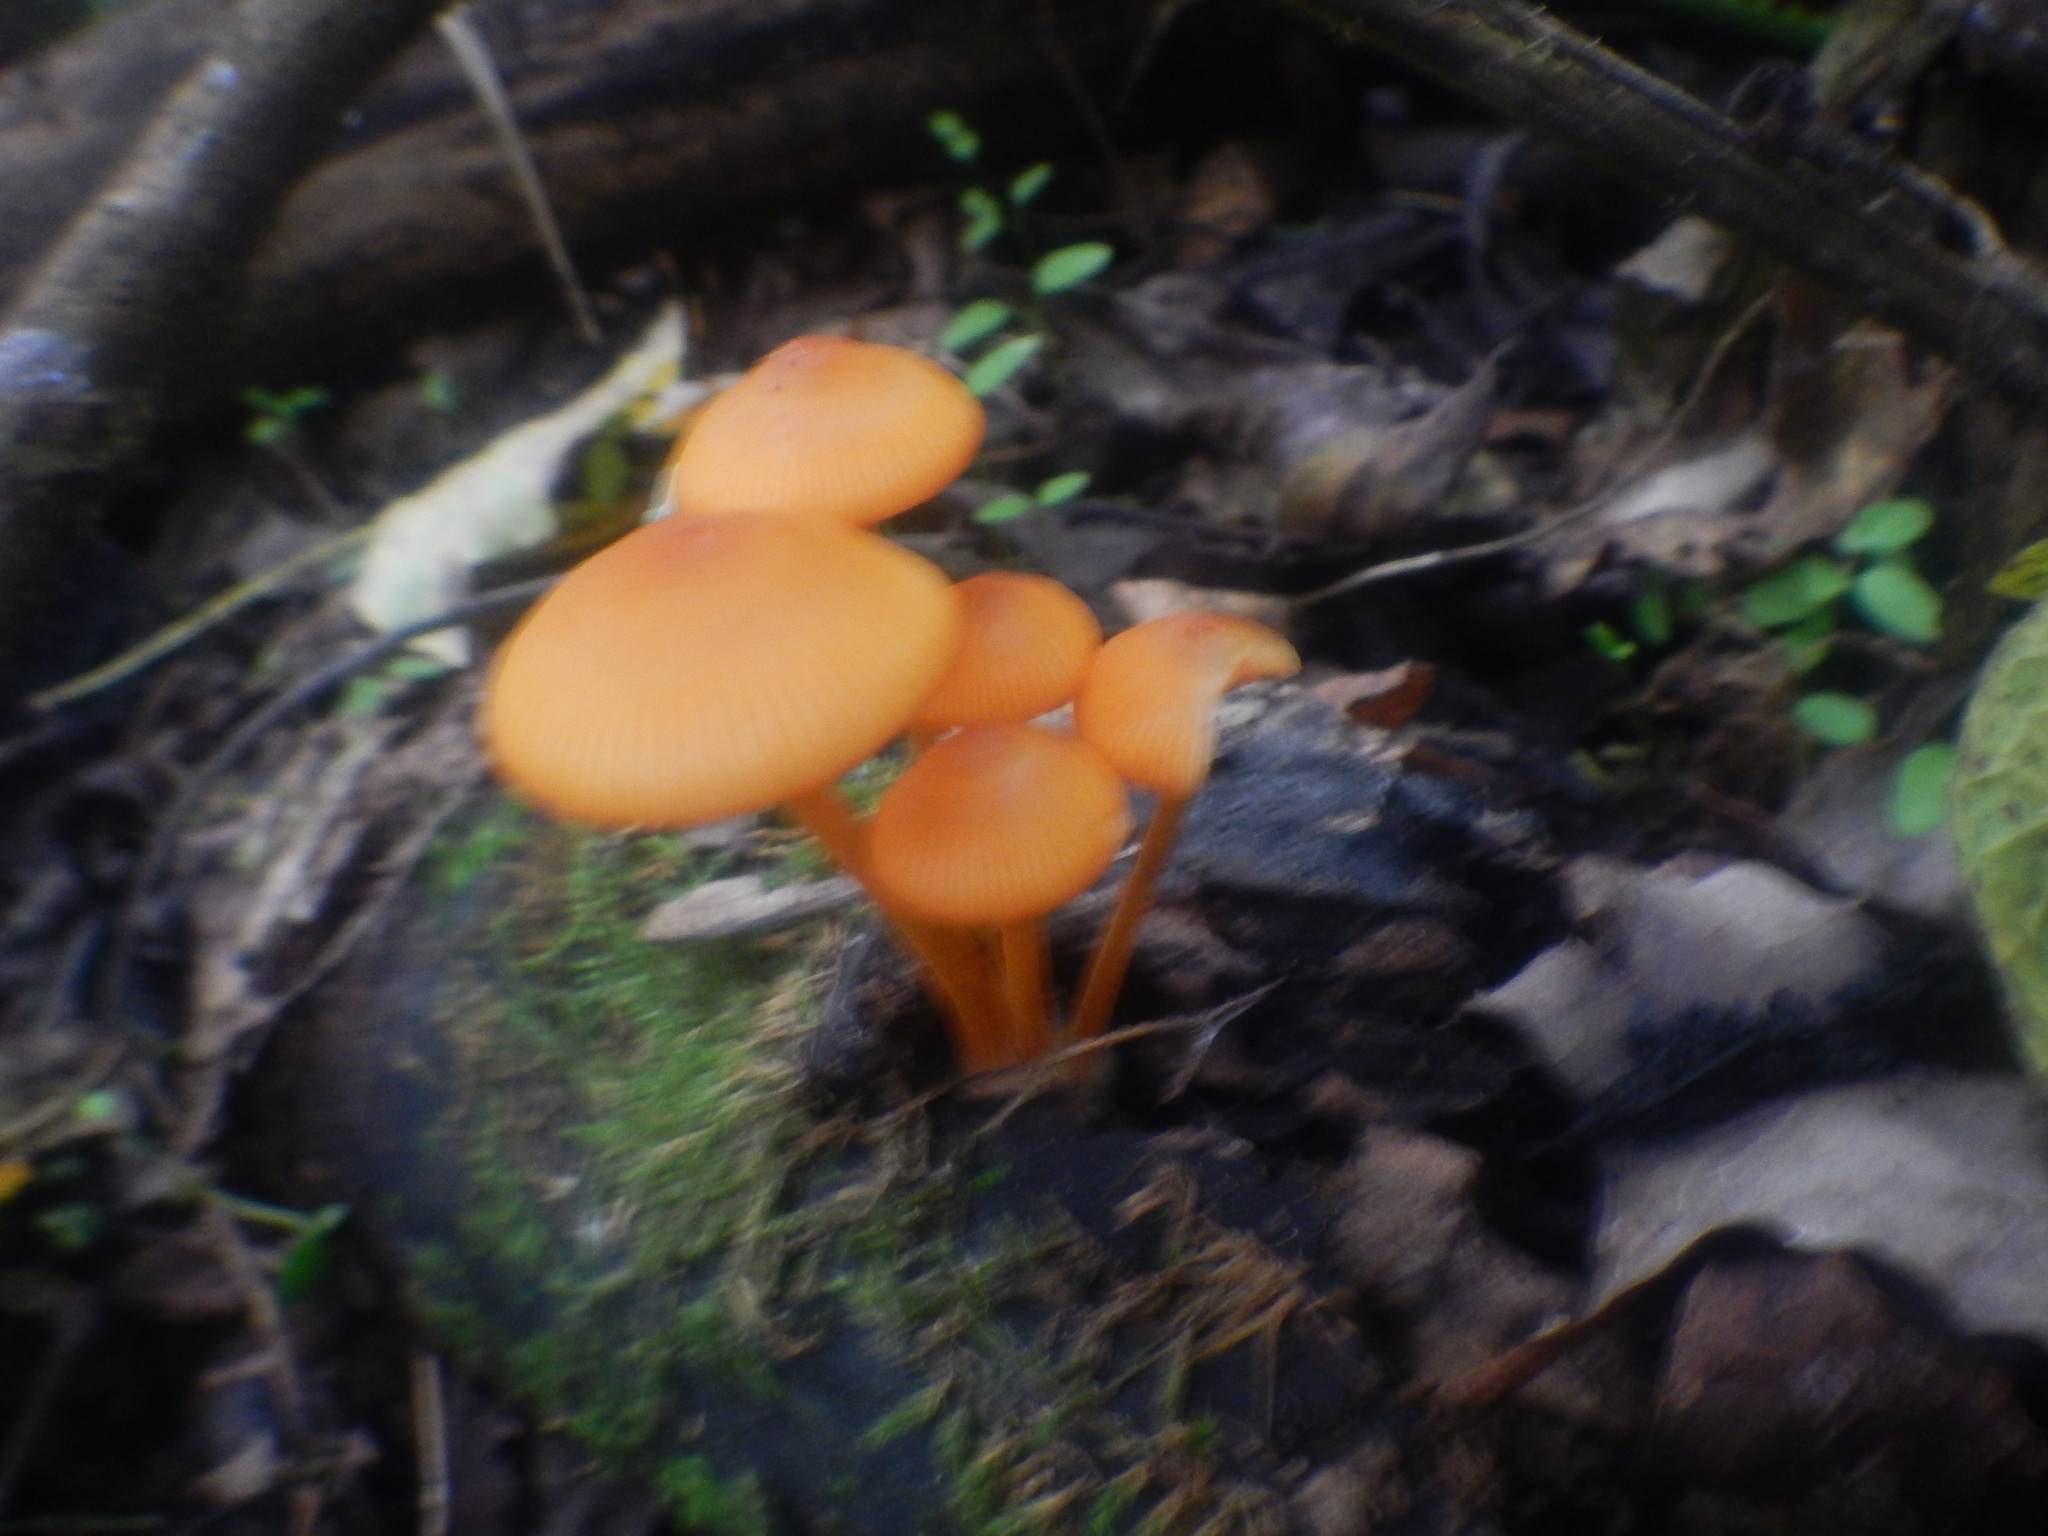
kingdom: Fungi
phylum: Basidiomycota
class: Agaricomycetes
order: Agaricales
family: Mycenaceae
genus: Mycena
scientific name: Mycena leaiana
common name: Orange mycena
